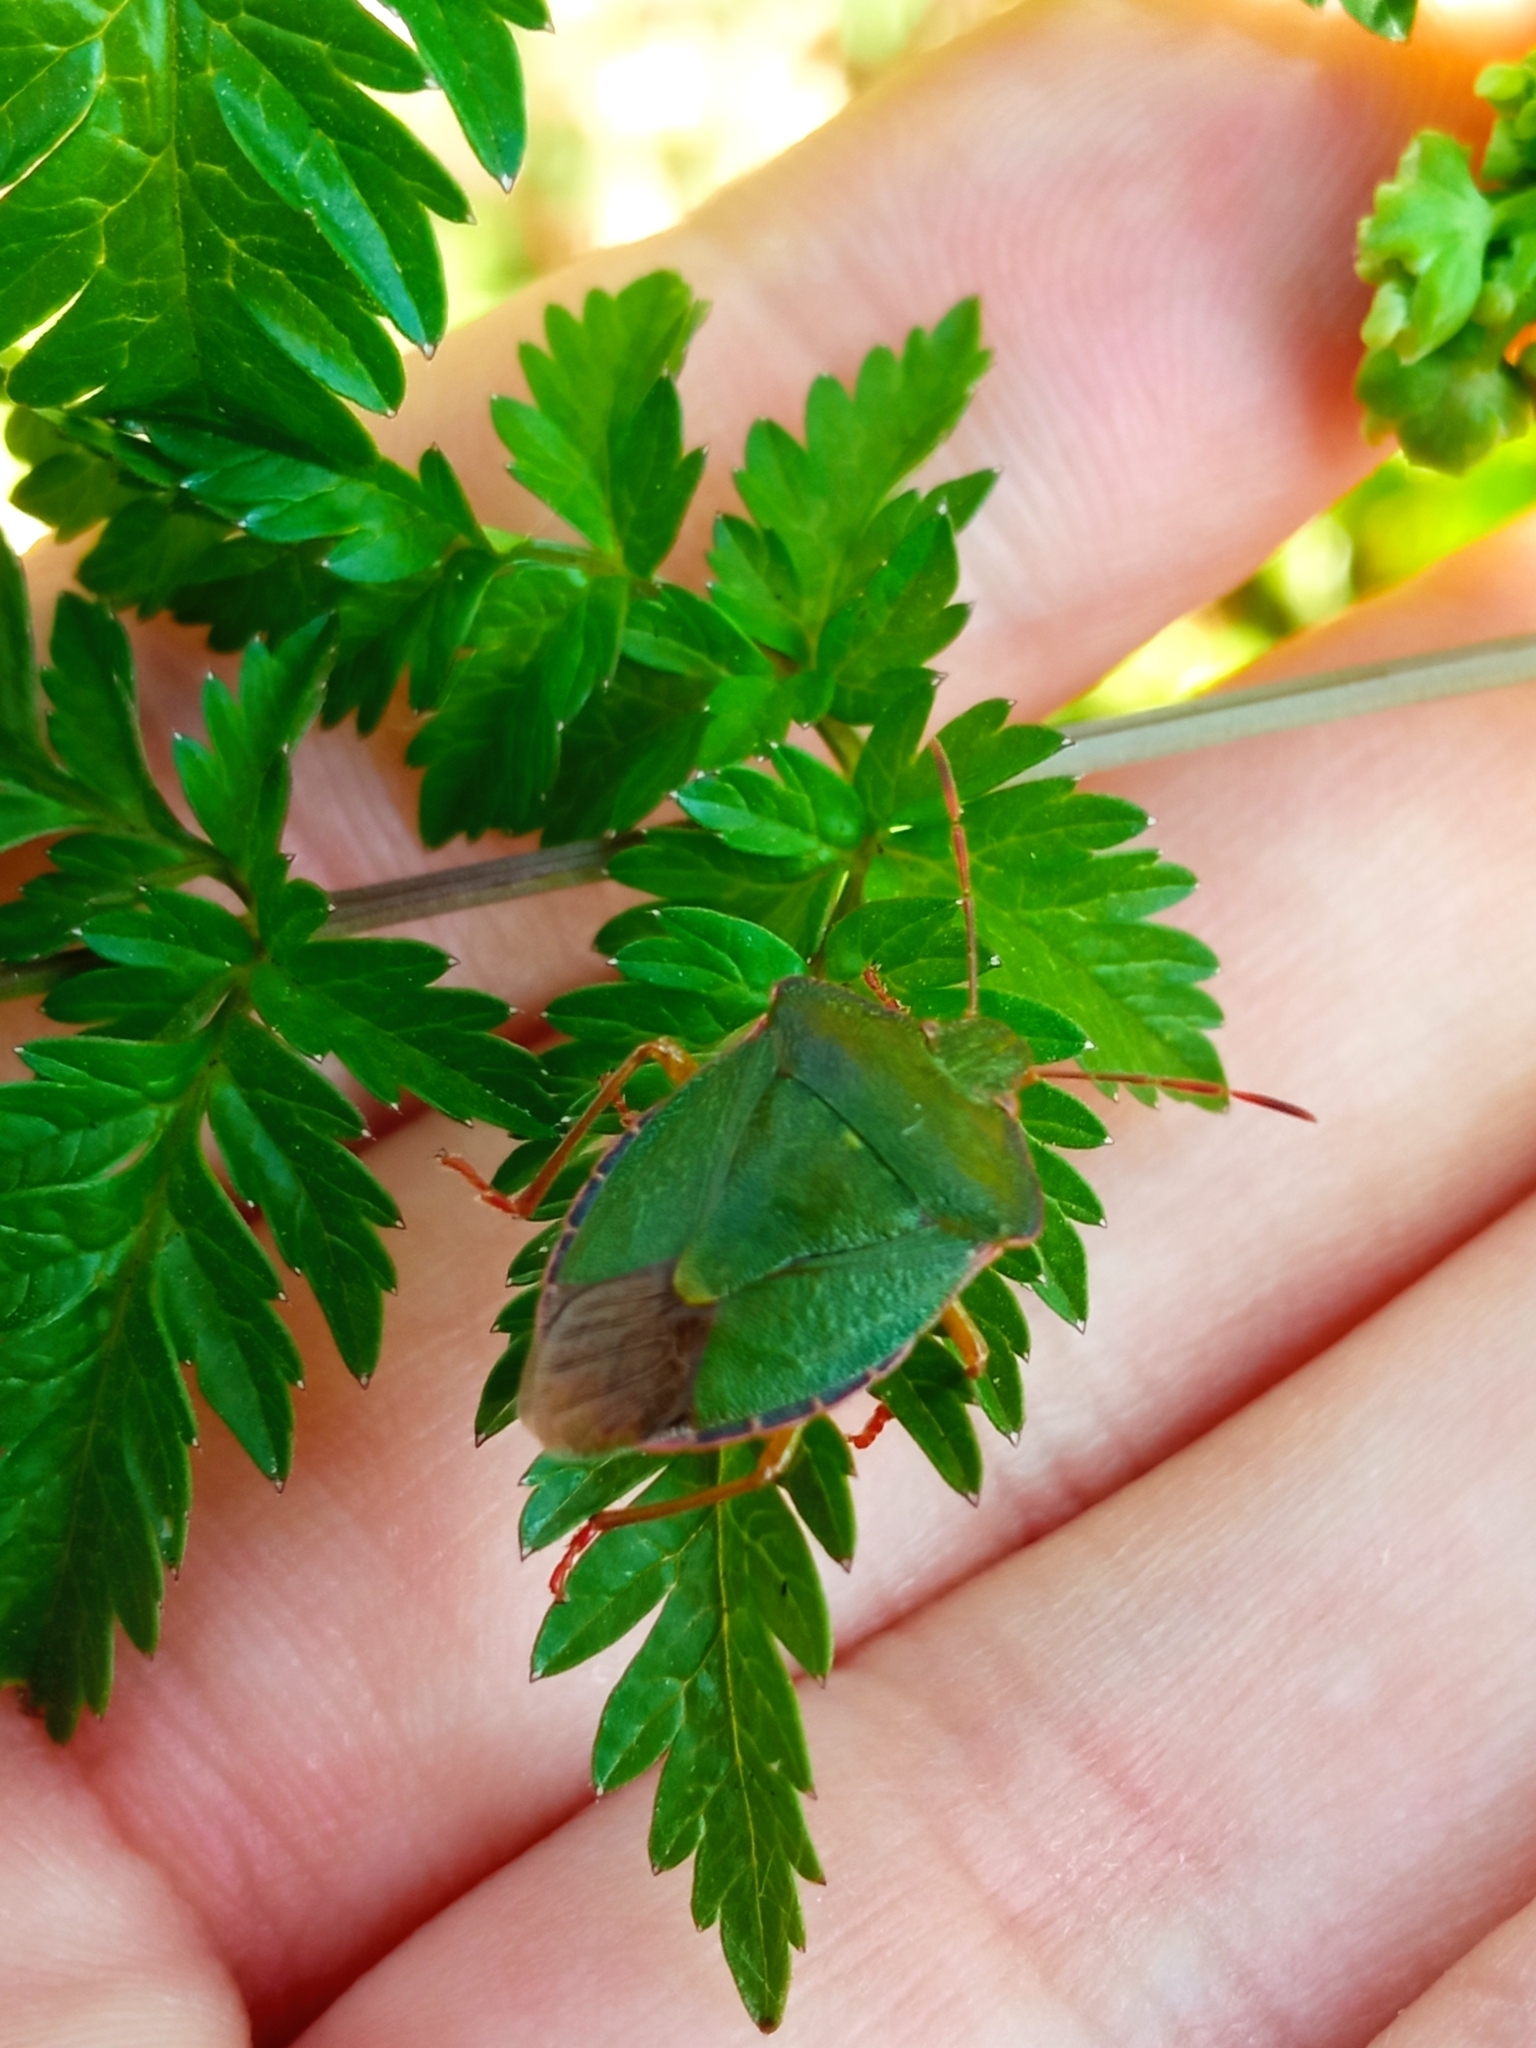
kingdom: Animalia
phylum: Arthropoda
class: Insecta
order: Hemiptera
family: Pentatomidae
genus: Palomena
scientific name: Palomena prasina
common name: Green shieldbug
